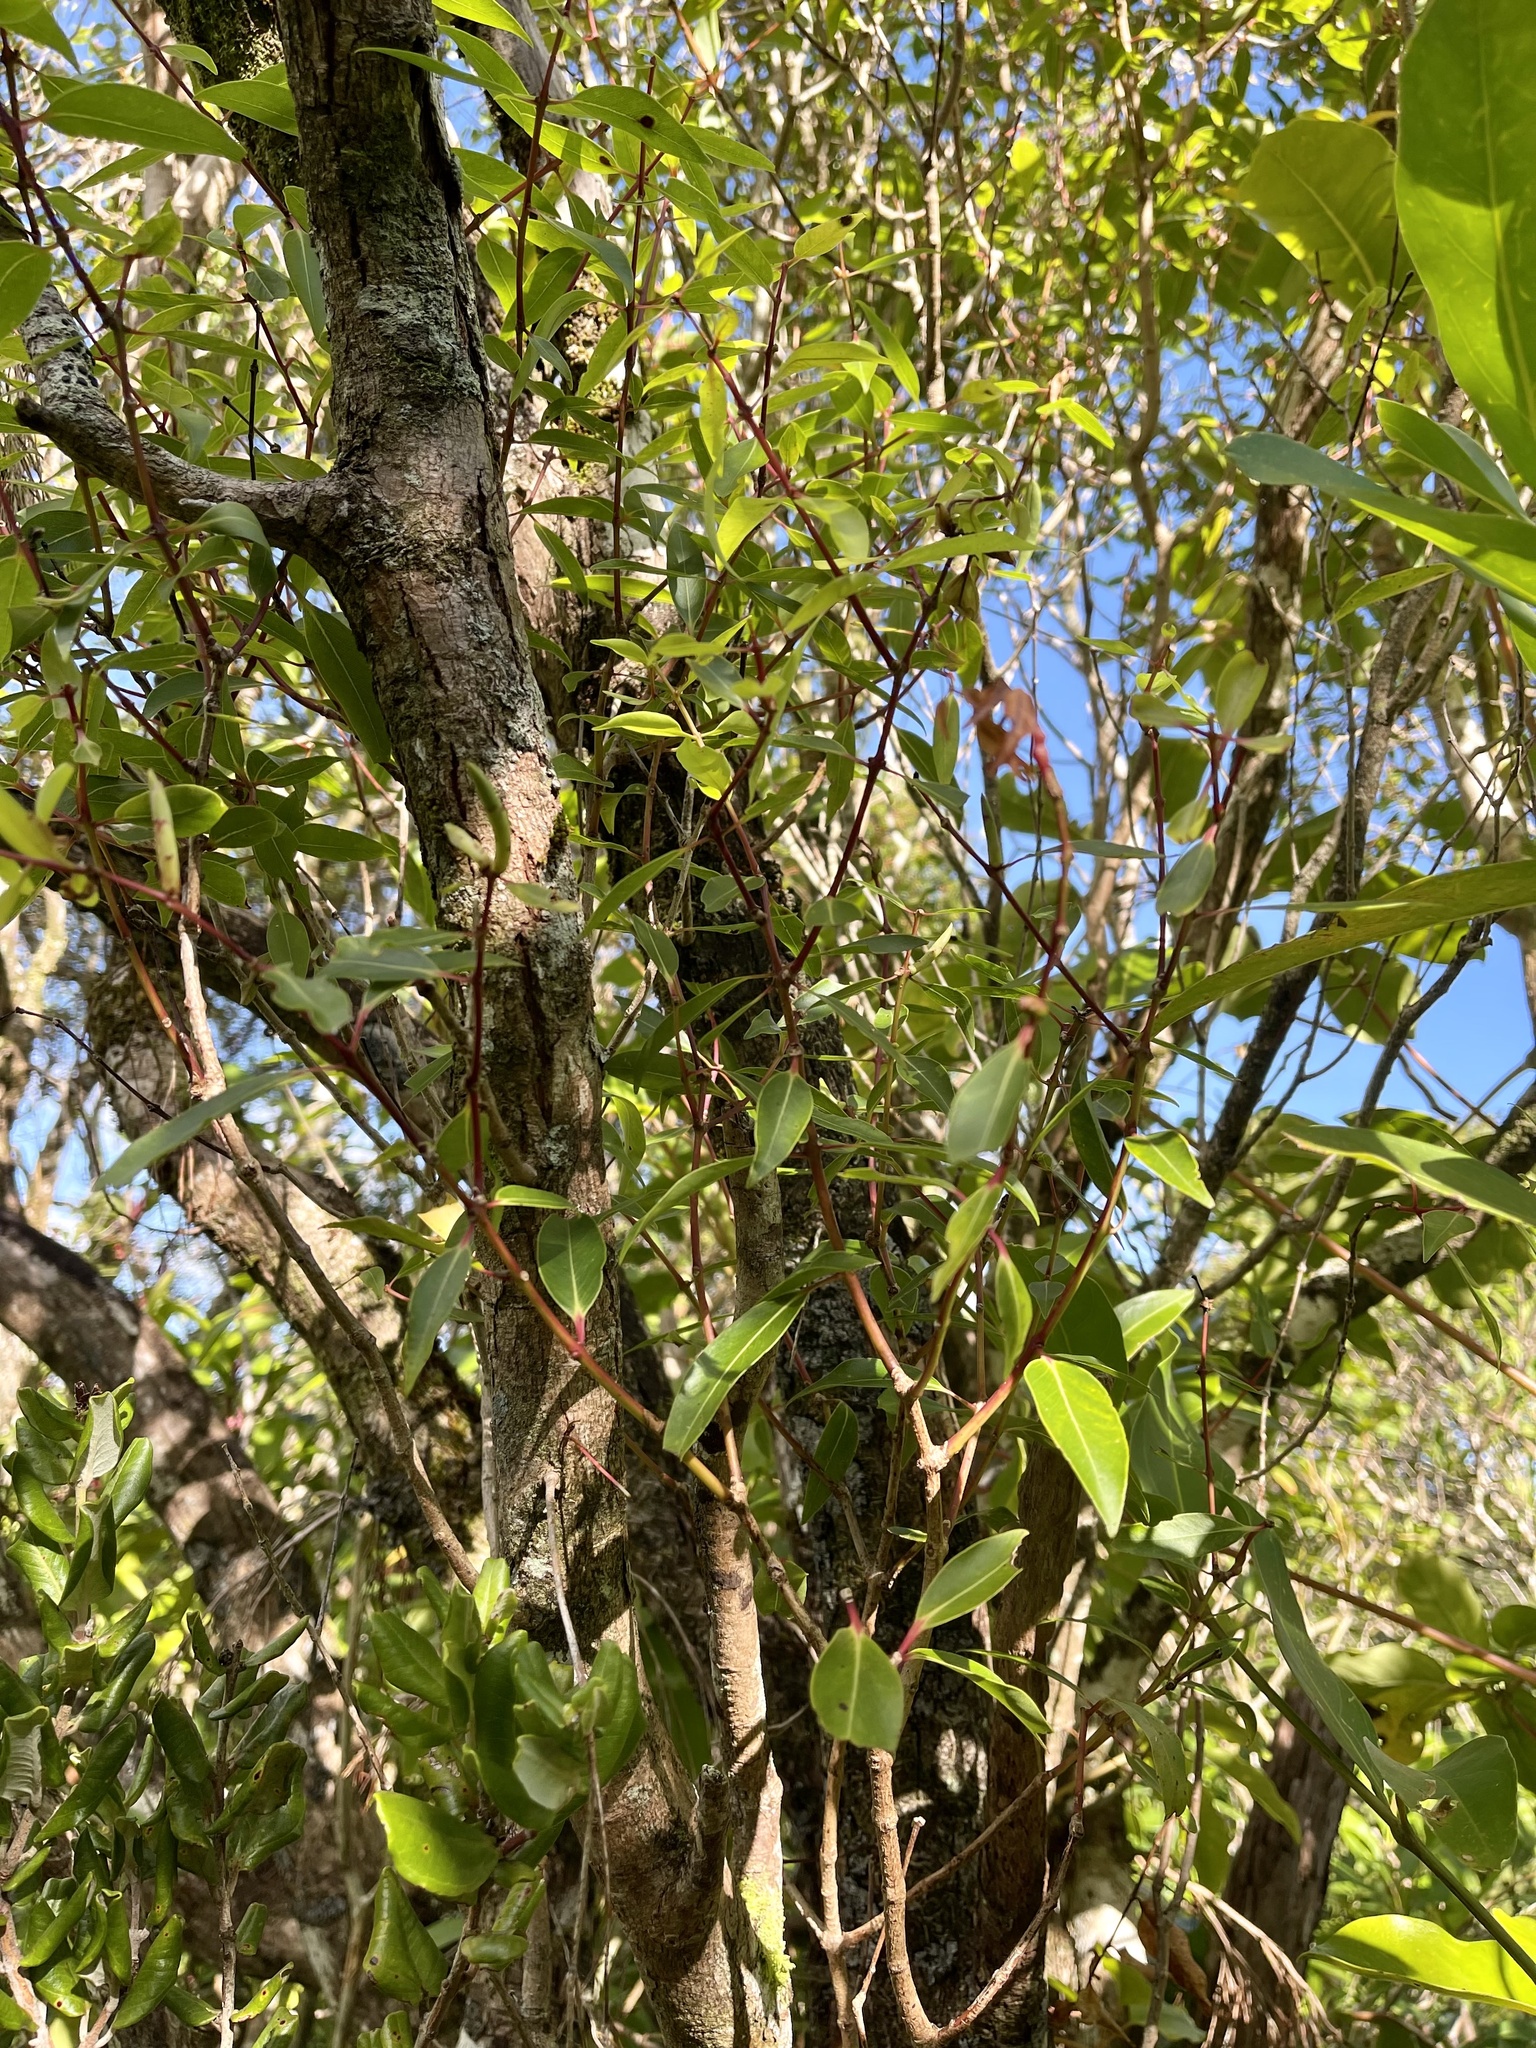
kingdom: Plantae
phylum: Tracheophyta
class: Magnoliopsida
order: Myrtales
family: Myrtaceae
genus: Metrosideros
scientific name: Metrosideros tremuloides
